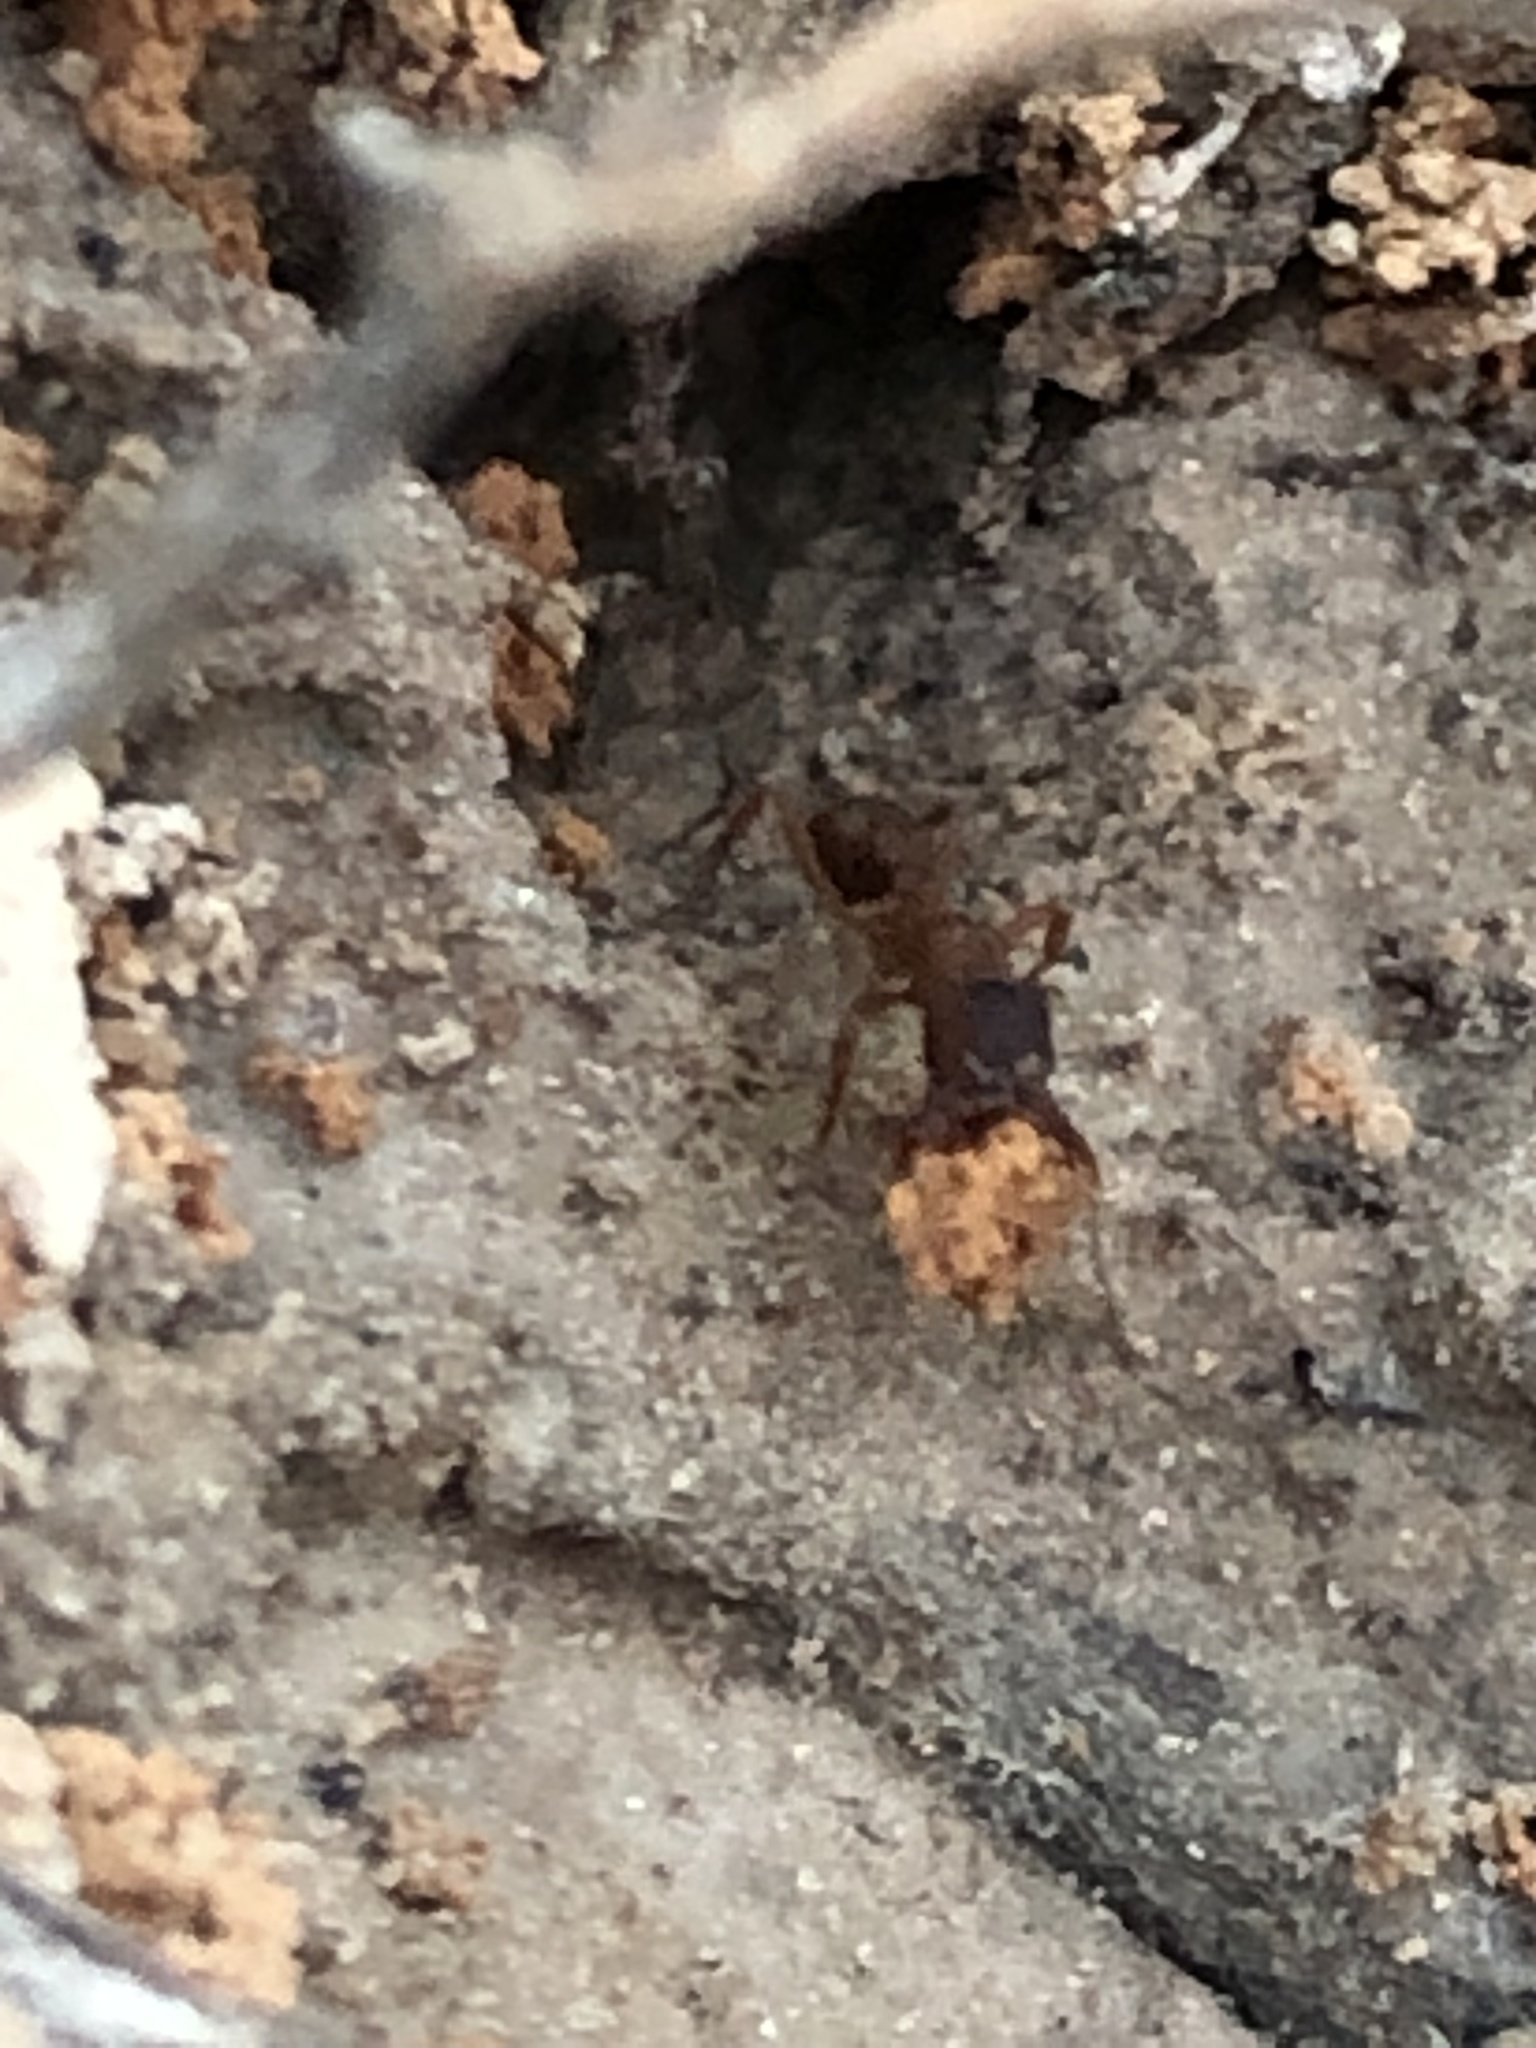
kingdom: Animalia
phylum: Arthropoda
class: Insecta
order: Hymenoptera
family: Formicidae
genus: Trachymyrmex
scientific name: Trachymyrmex septentrionalis
